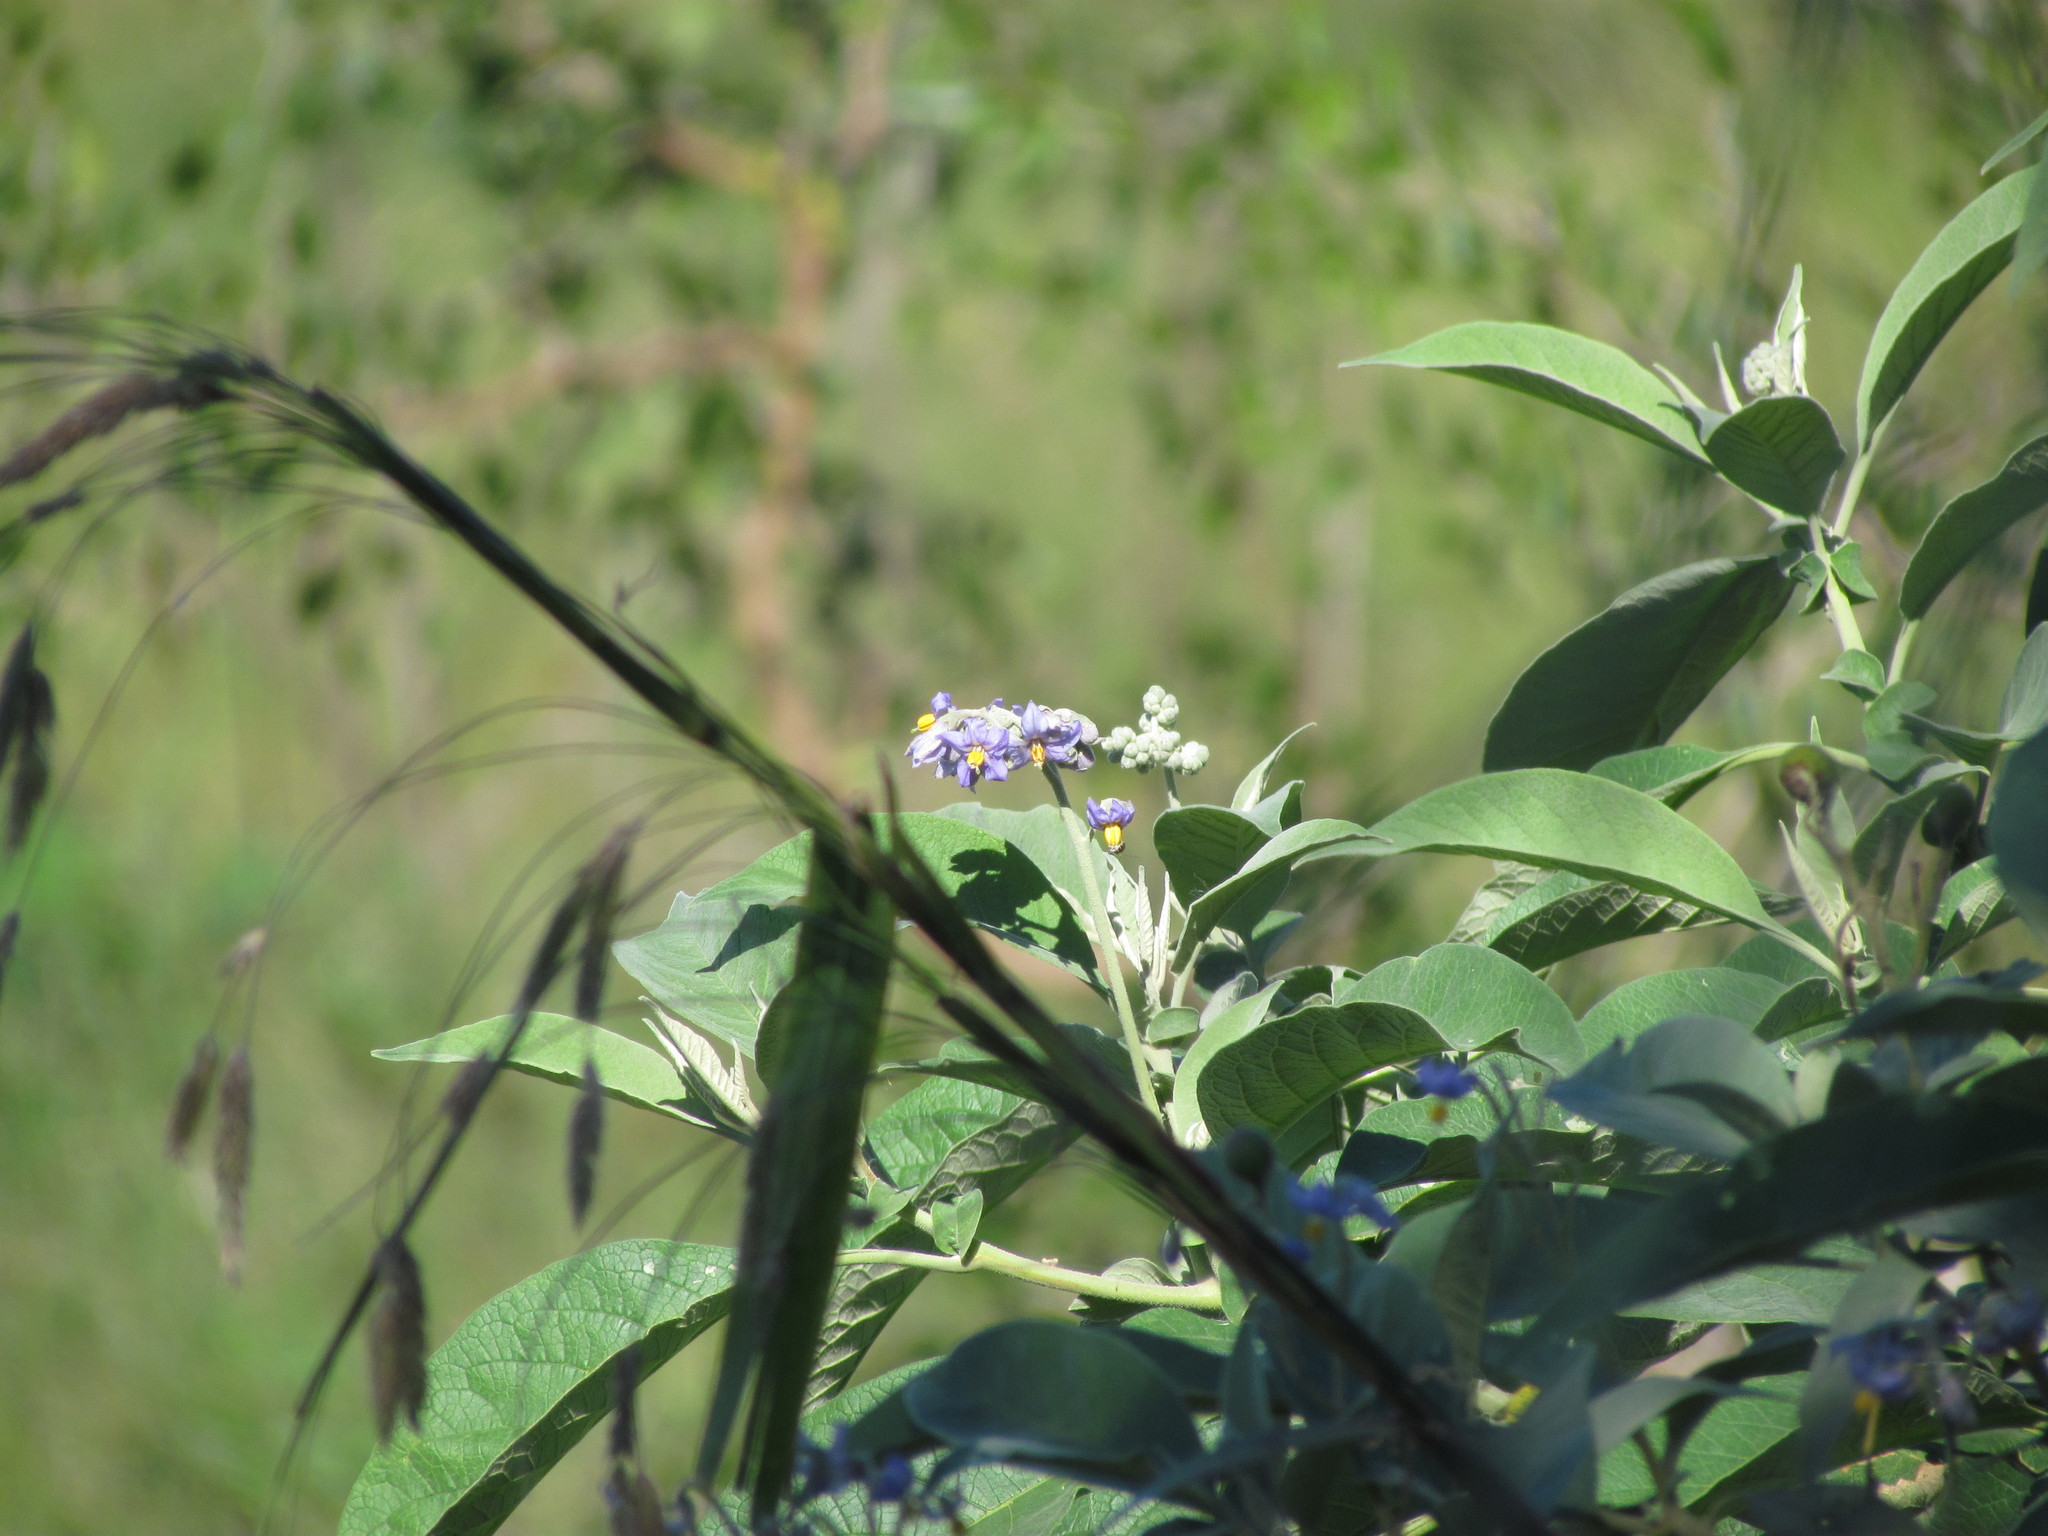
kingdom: Plantae
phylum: Tracheophyta
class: Magnoliopsida
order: Solanales
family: Solanaceae
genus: Solanum
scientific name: Solanum granulosoleprosum
